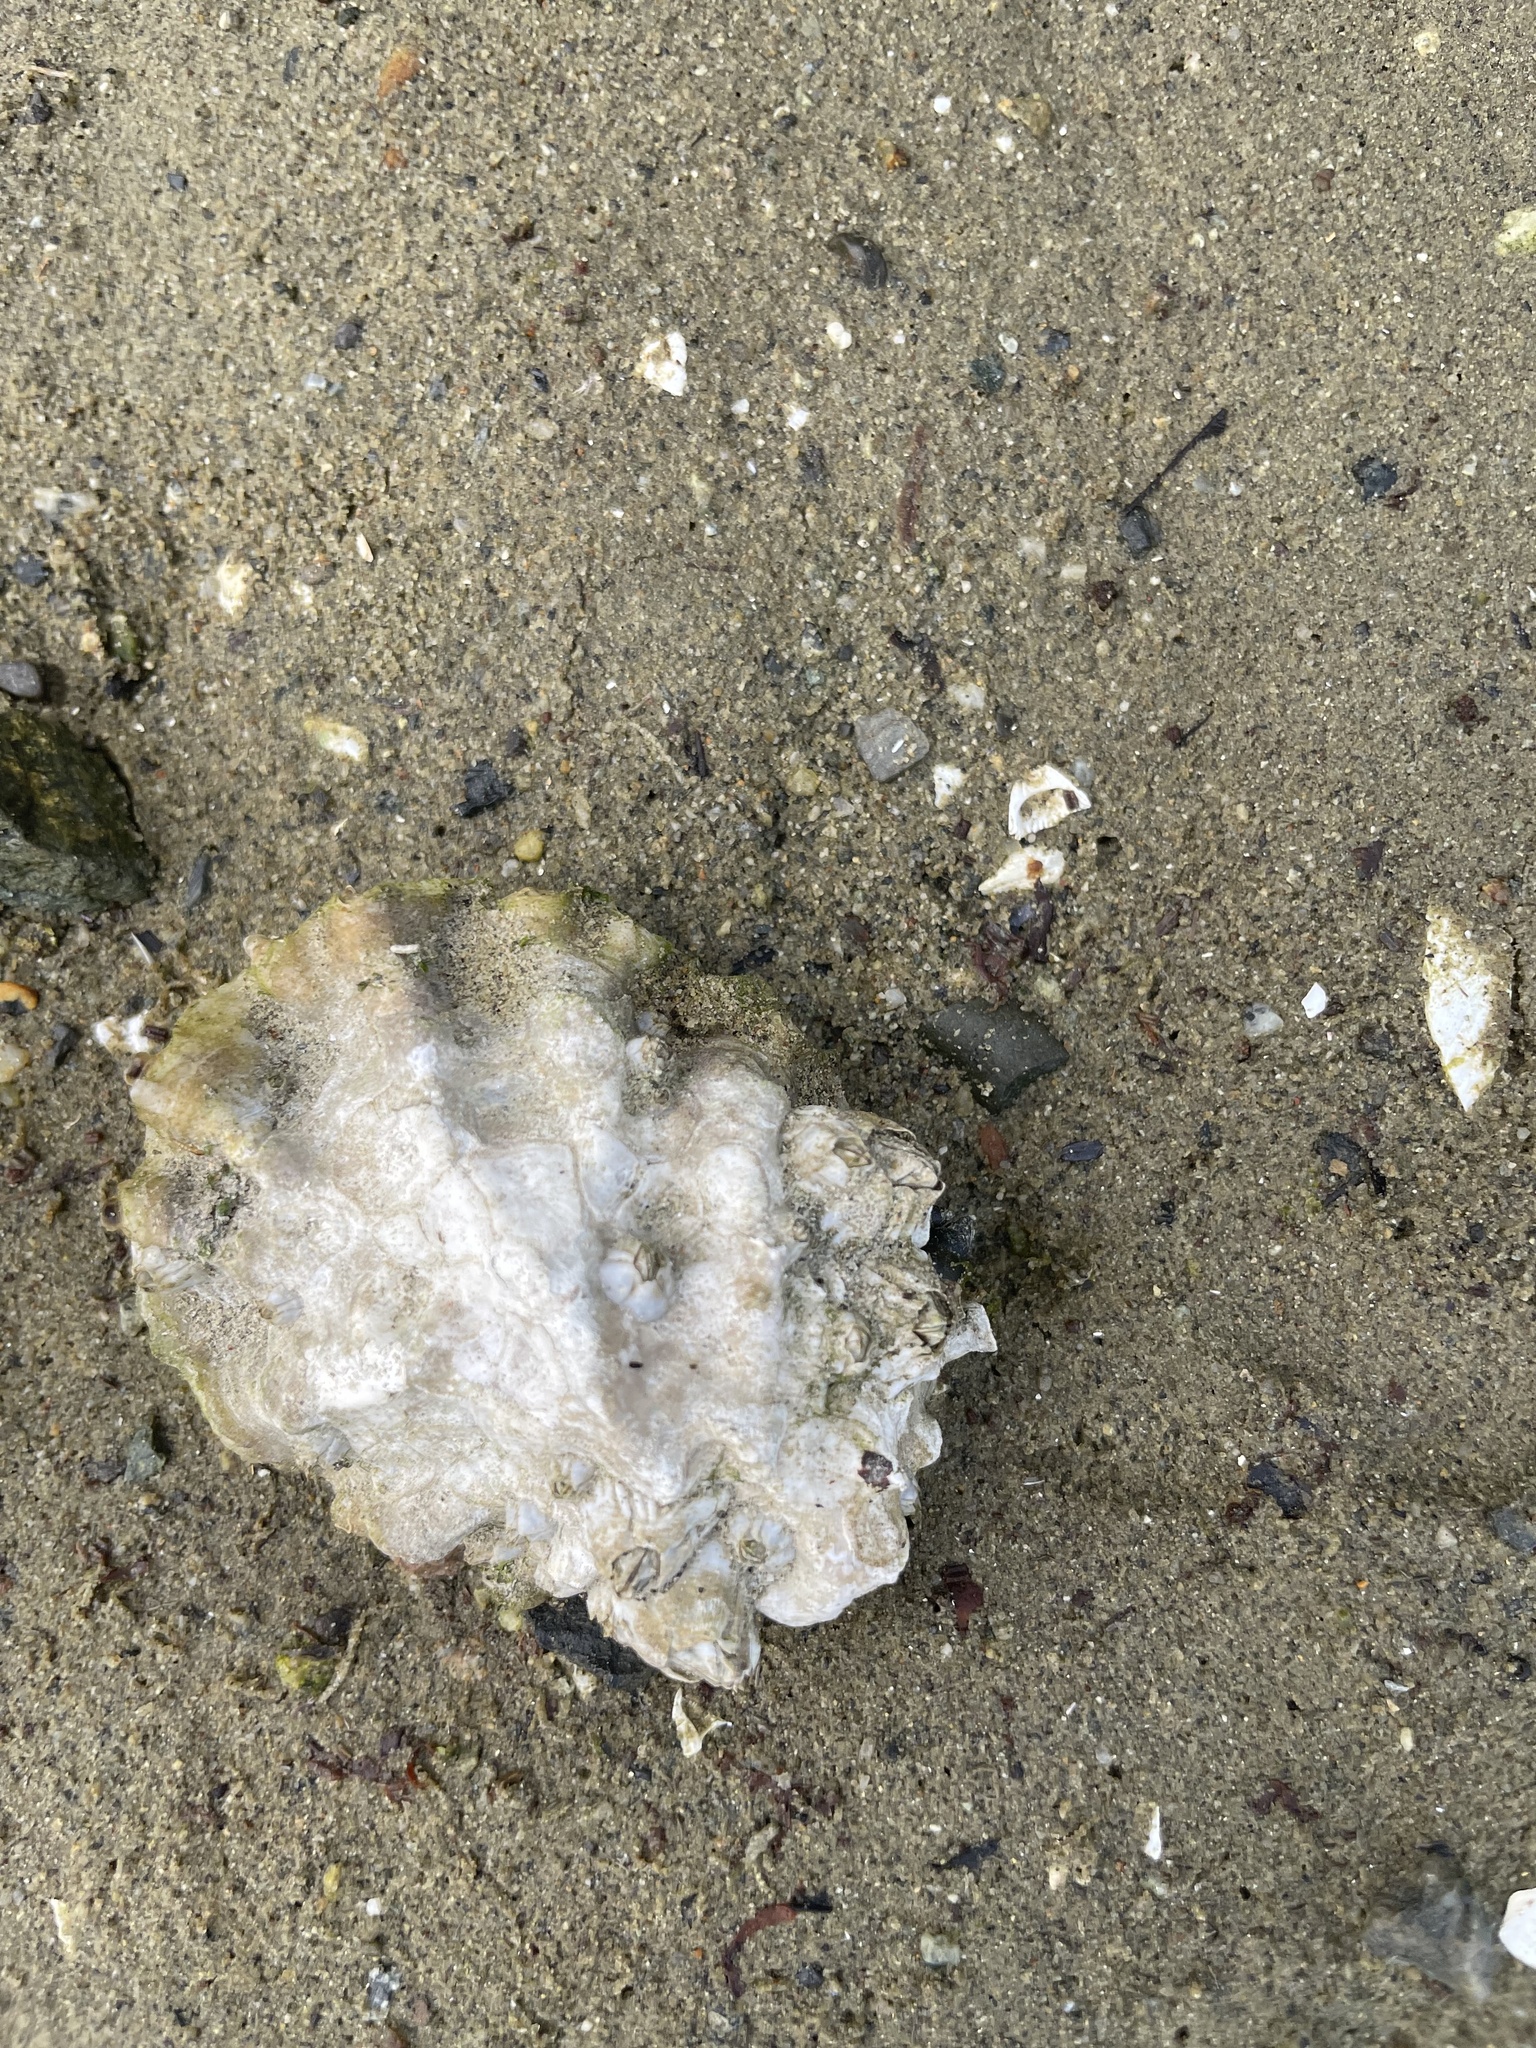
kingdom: Animalia
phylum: Mollusca
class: Bivalvia
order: Ostreida
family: Ostreidae
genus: Magallana
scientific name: Magallana gigas
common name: Pacific oyster
